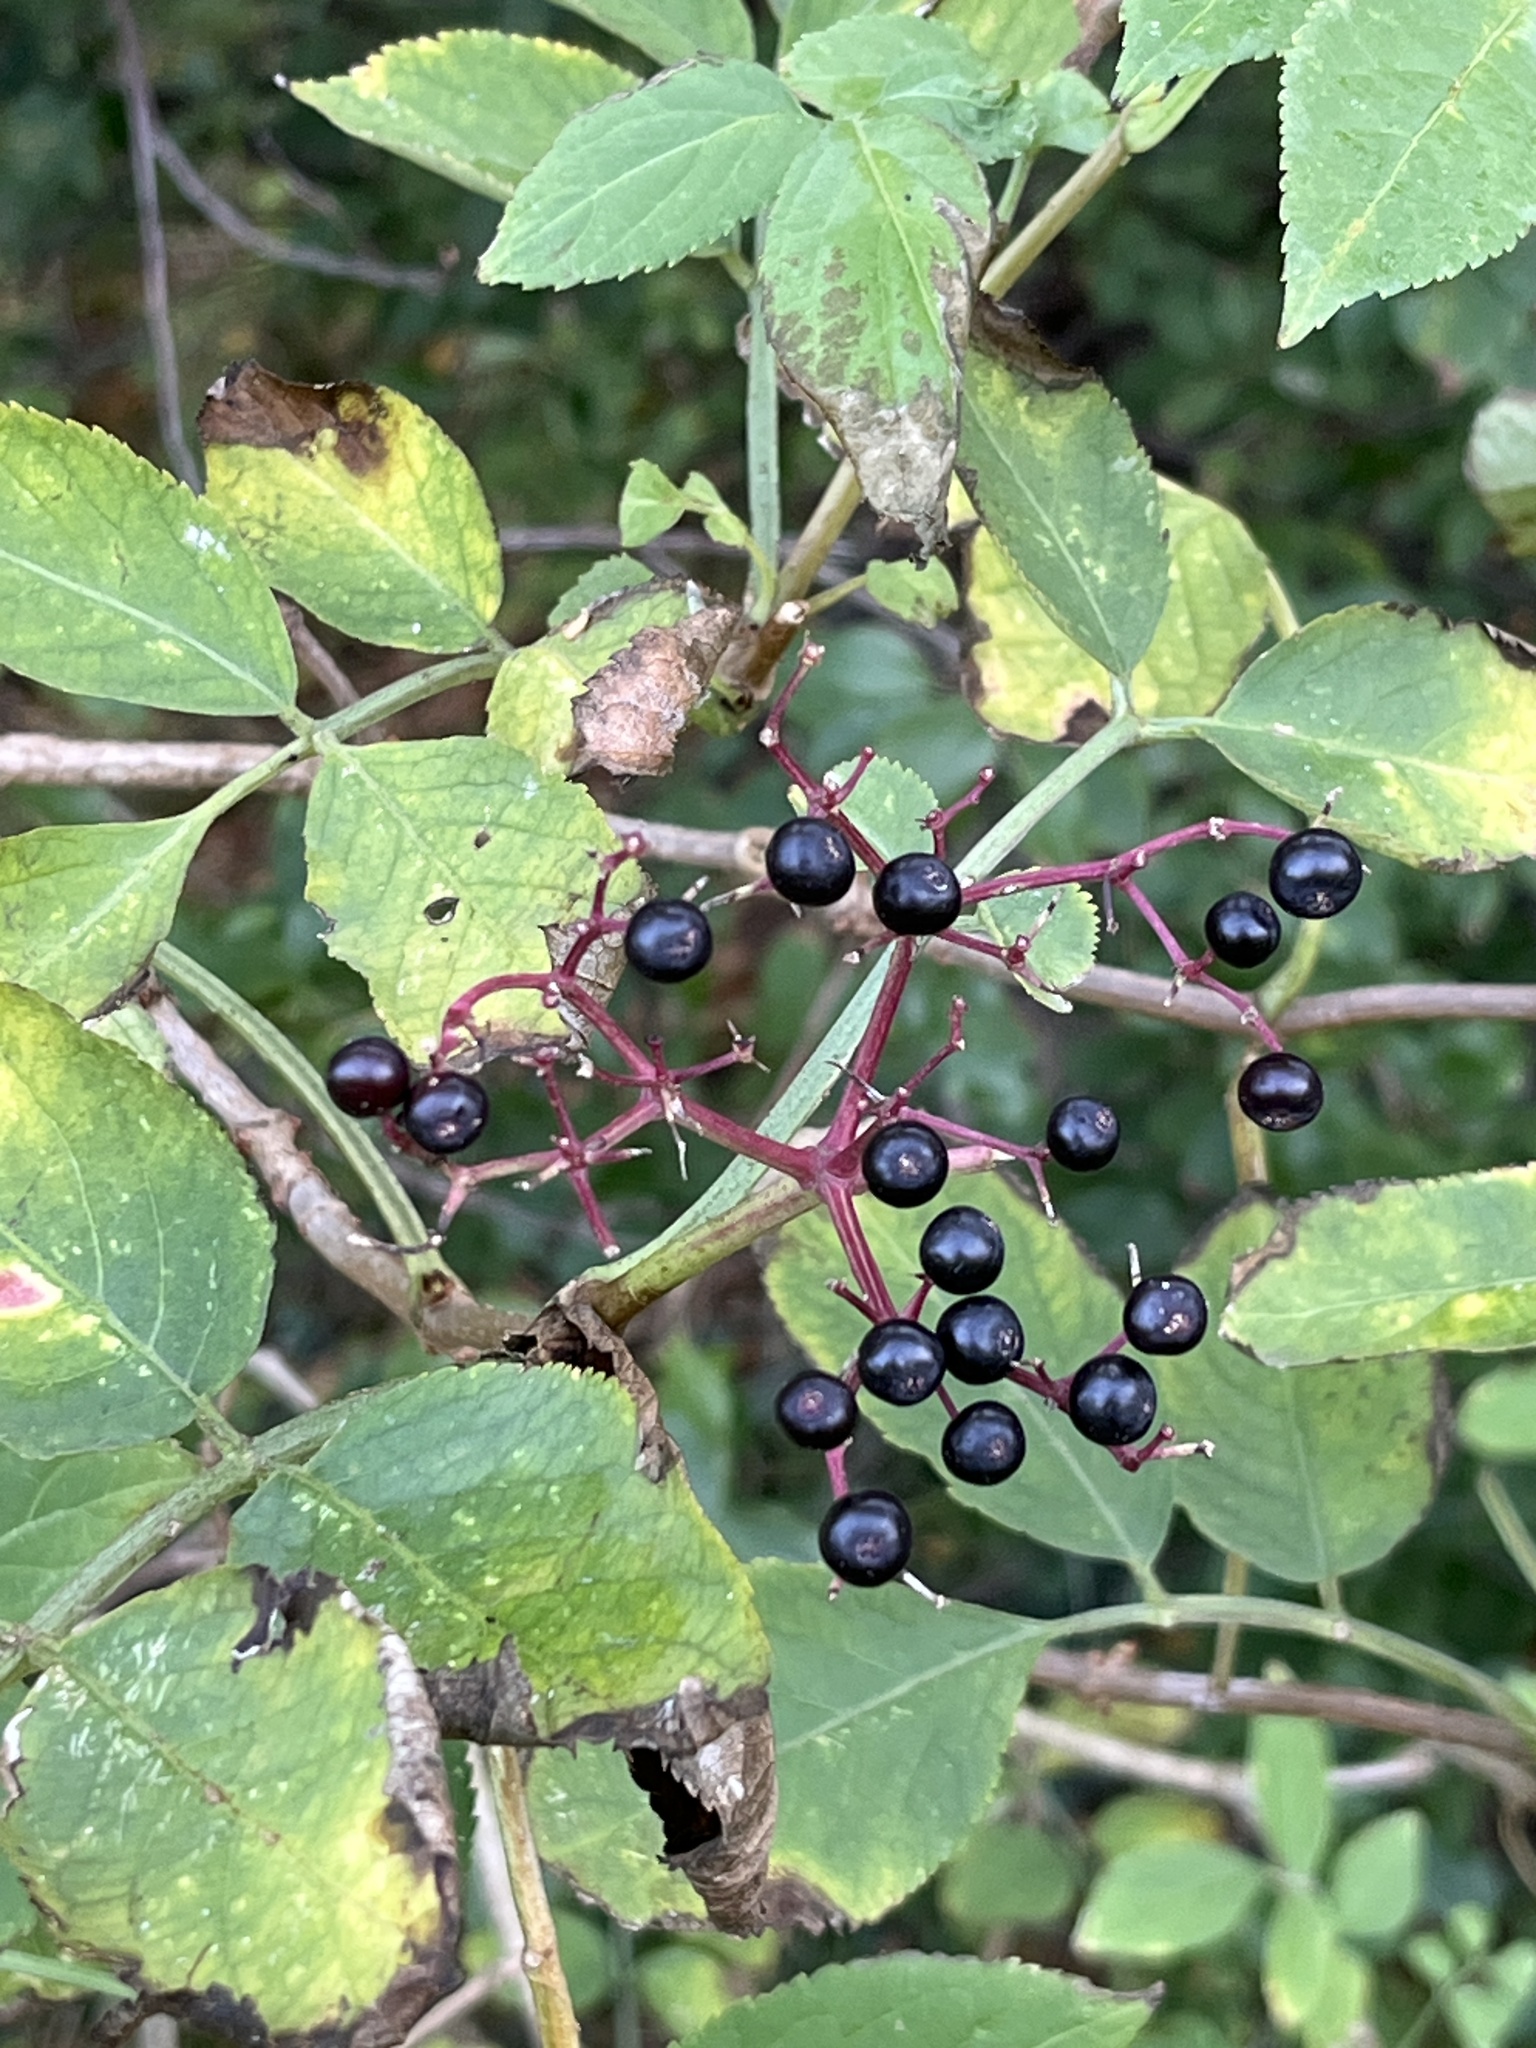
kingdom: Plantae
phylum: Tracheophyta
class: Magnoliopsida
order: Dipsacales
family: Viburnaceae
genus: Sambucus
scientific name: Sambucus nigra
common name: Elder
